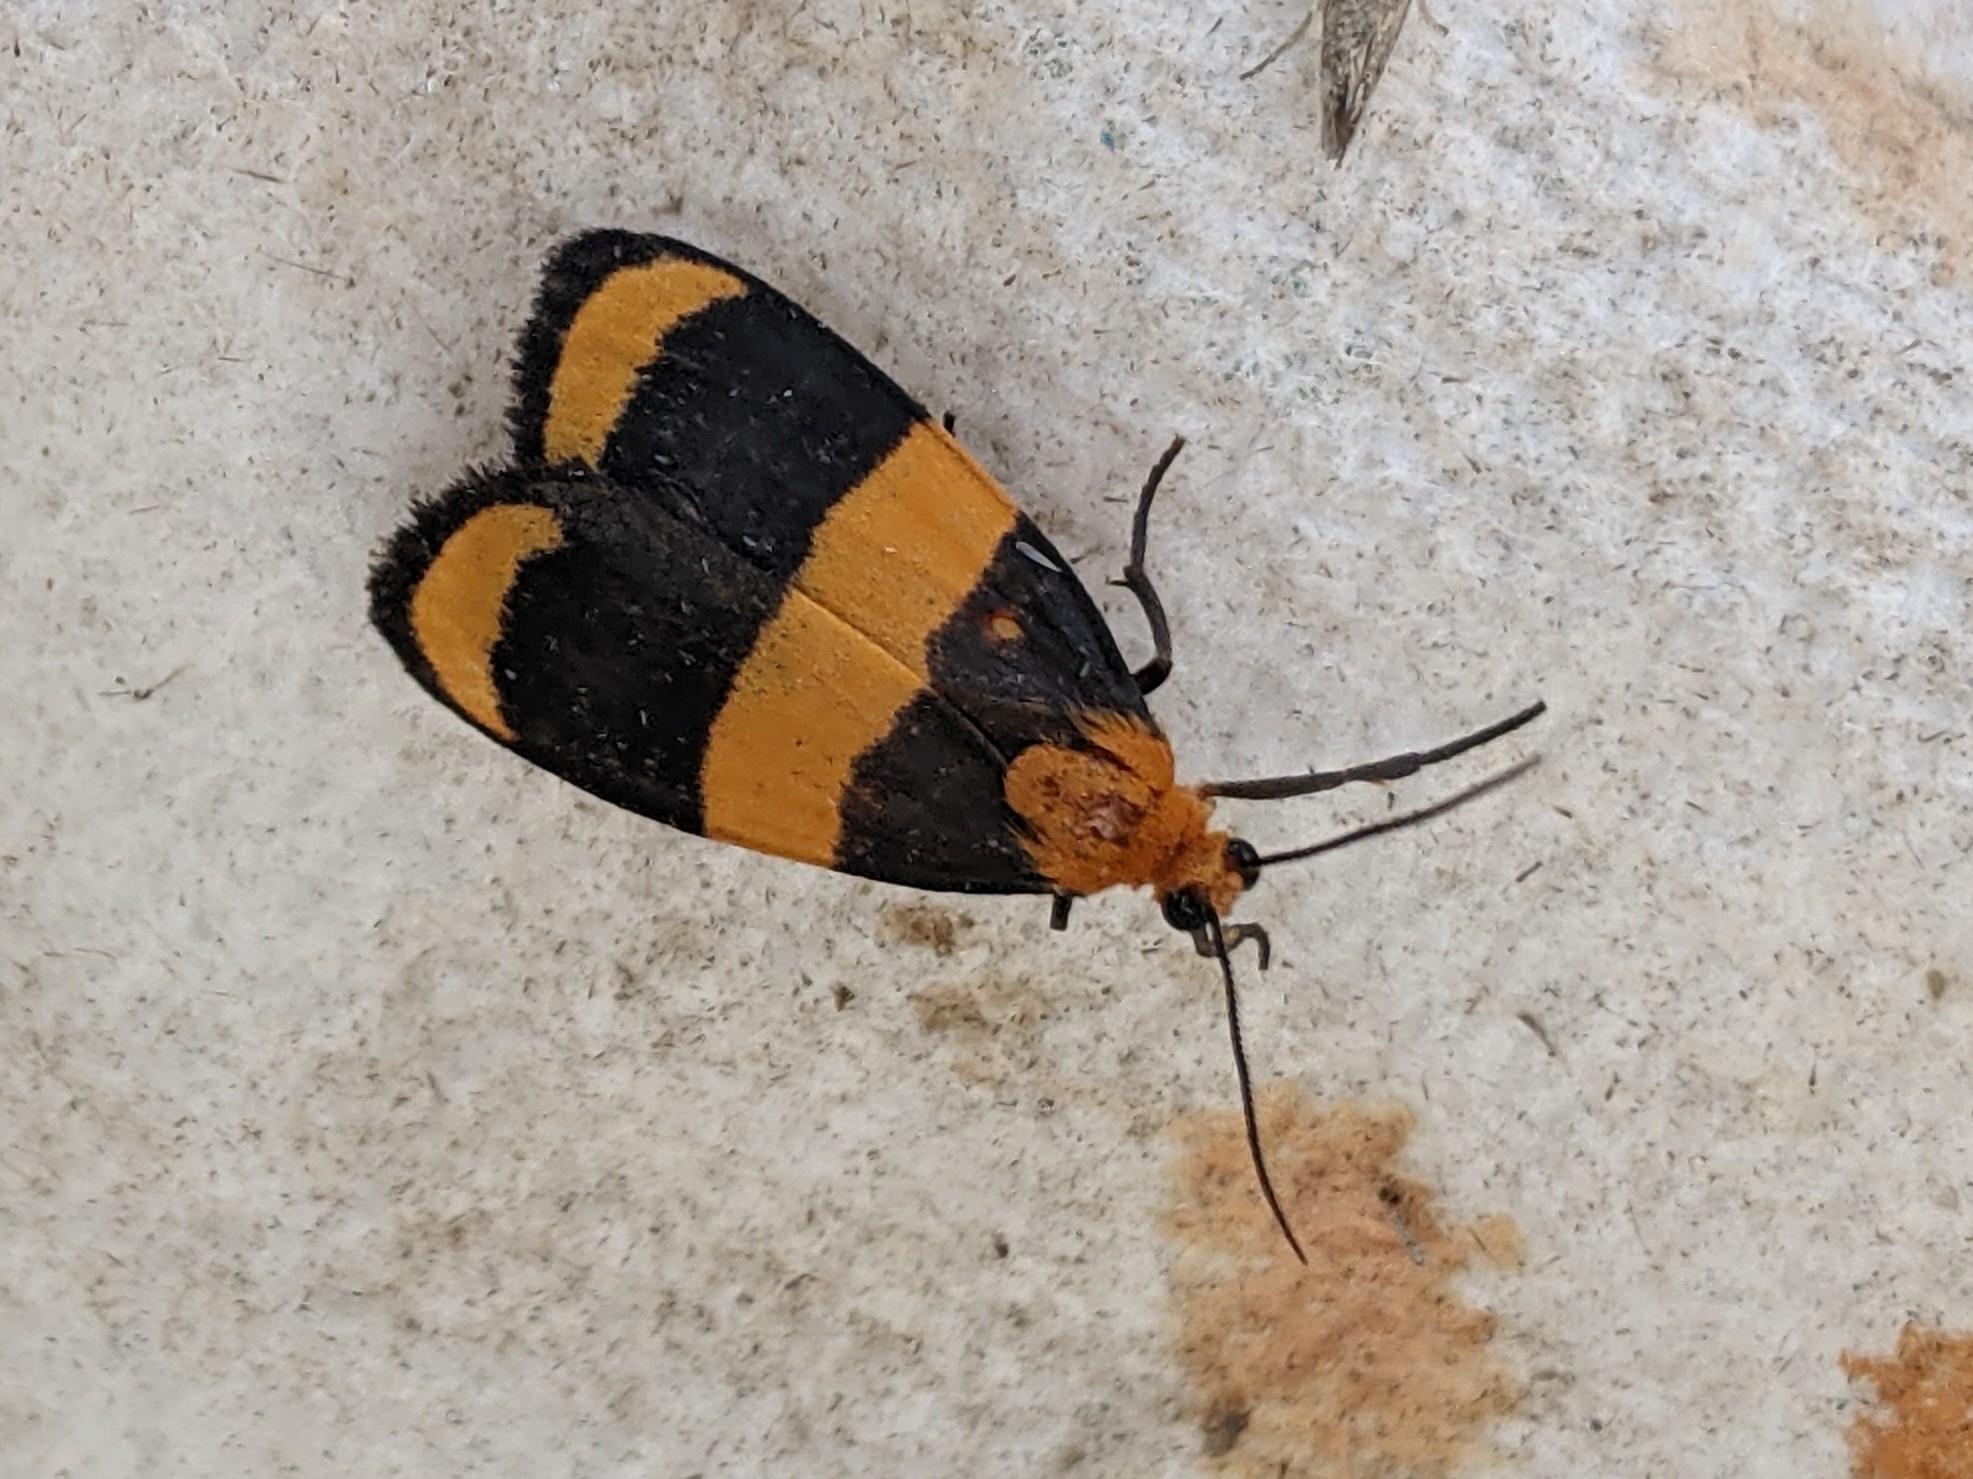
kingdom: Animalia
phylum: Arthropoda
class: Insecta
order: Lepidoptera
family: Erebidae
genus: Eudesmia
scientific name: Eudesmia arida
